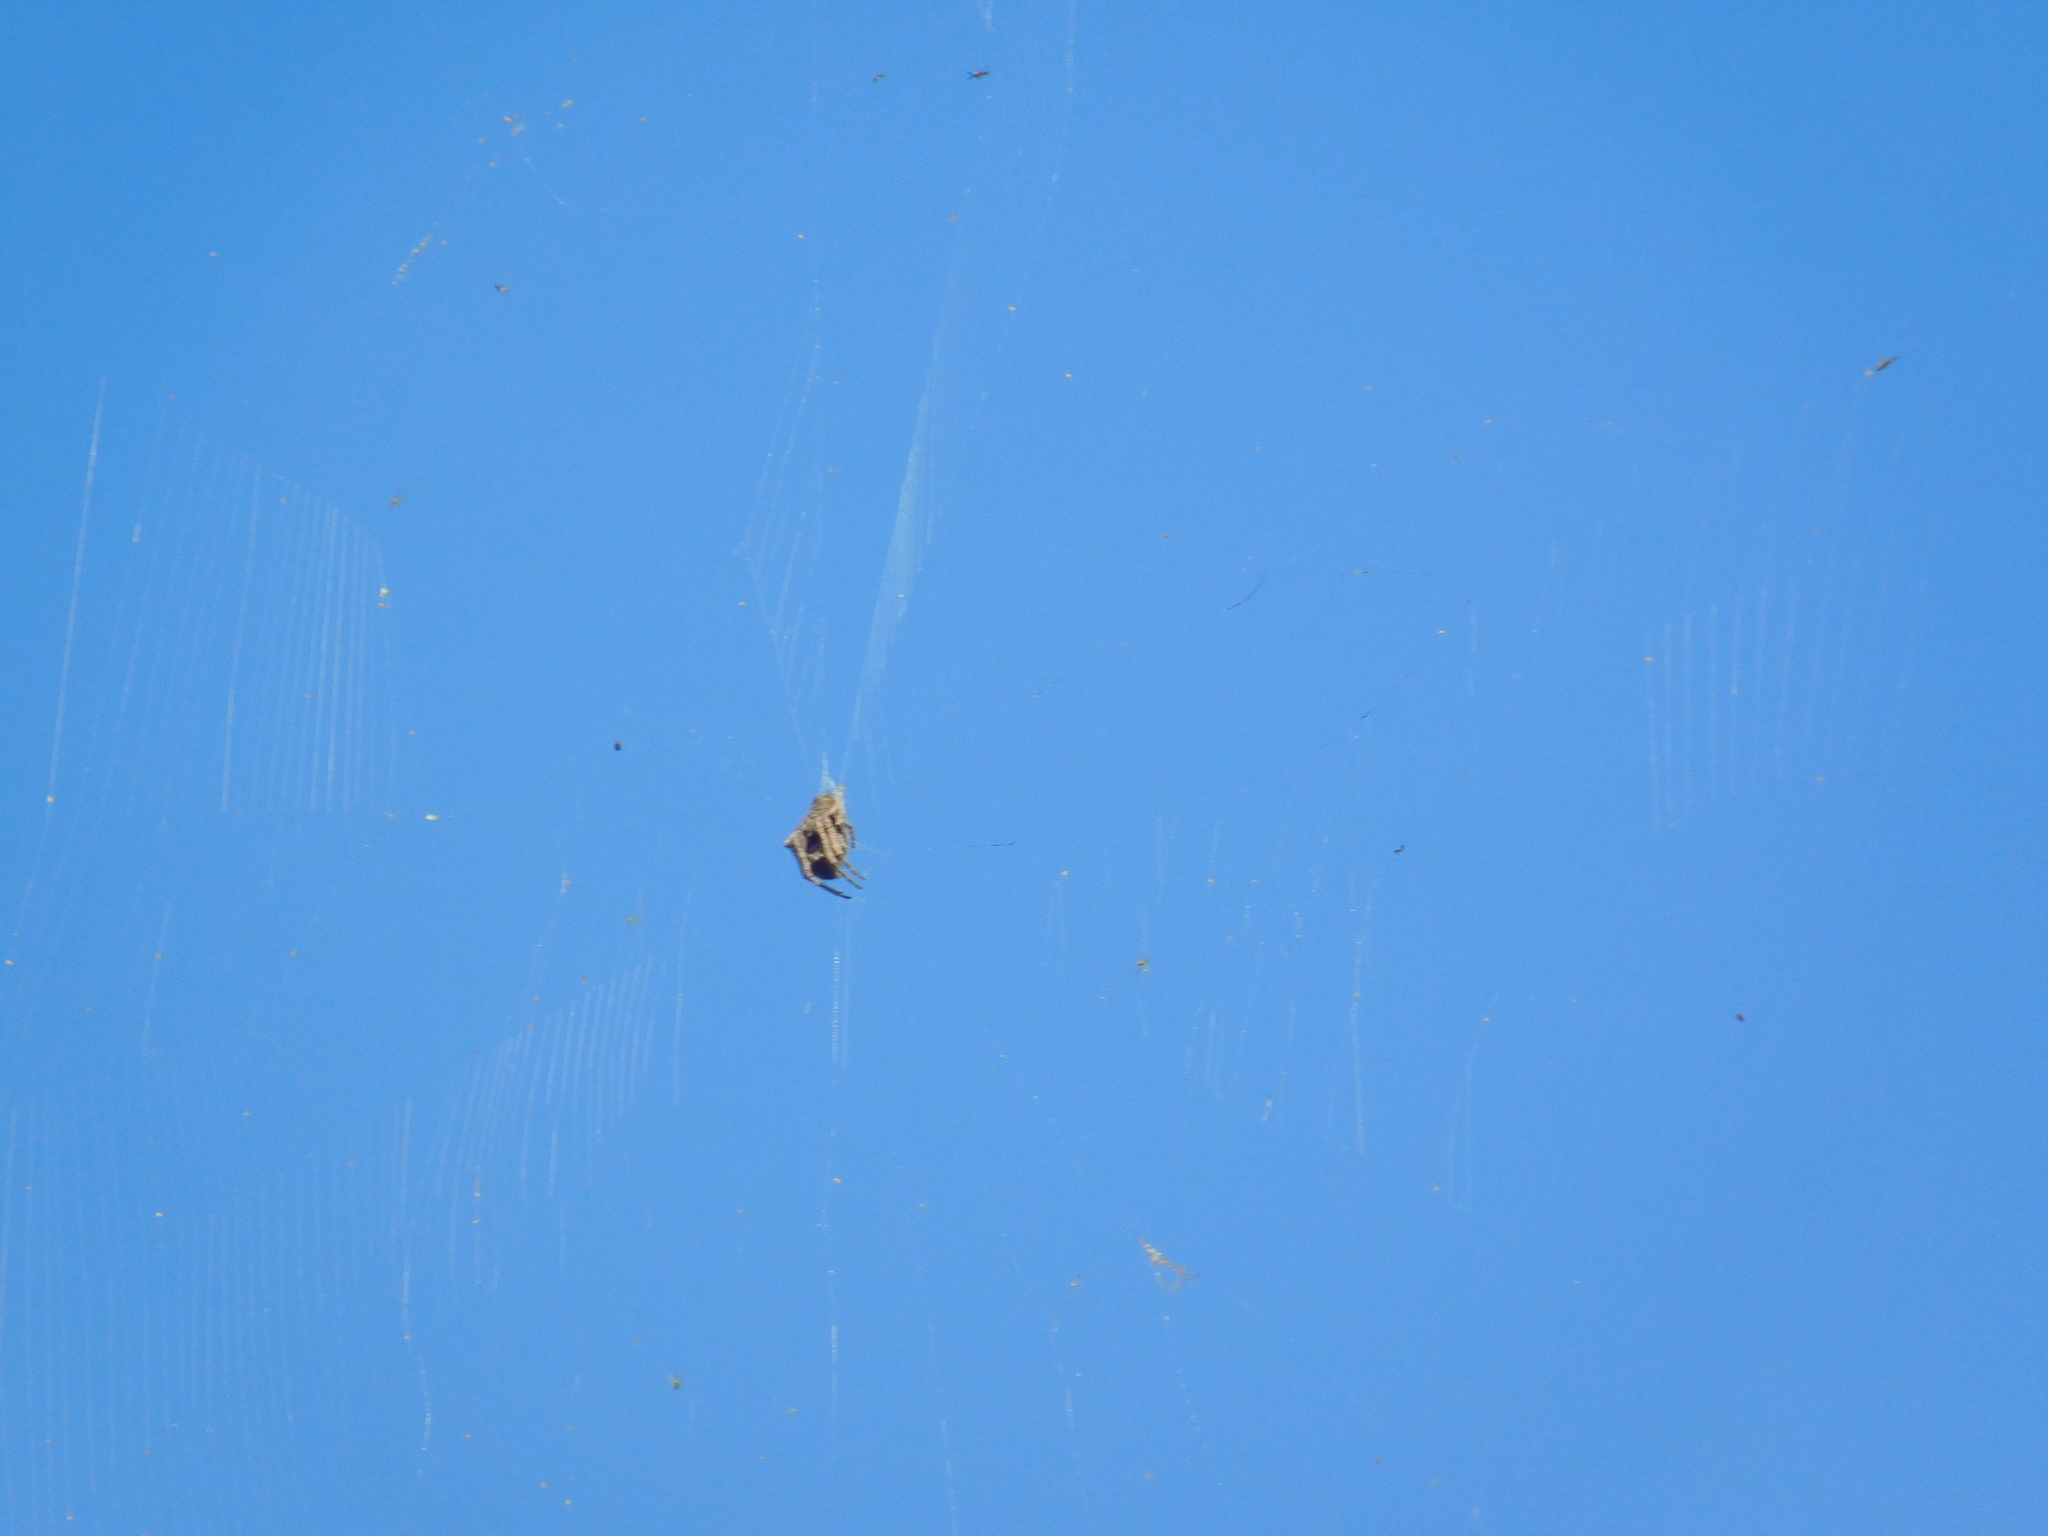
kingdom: Animalia
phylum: Arthropoda
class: Arachnida
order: Araneae
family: Araneidae
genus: Parawixia
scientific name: Parawixia audax
